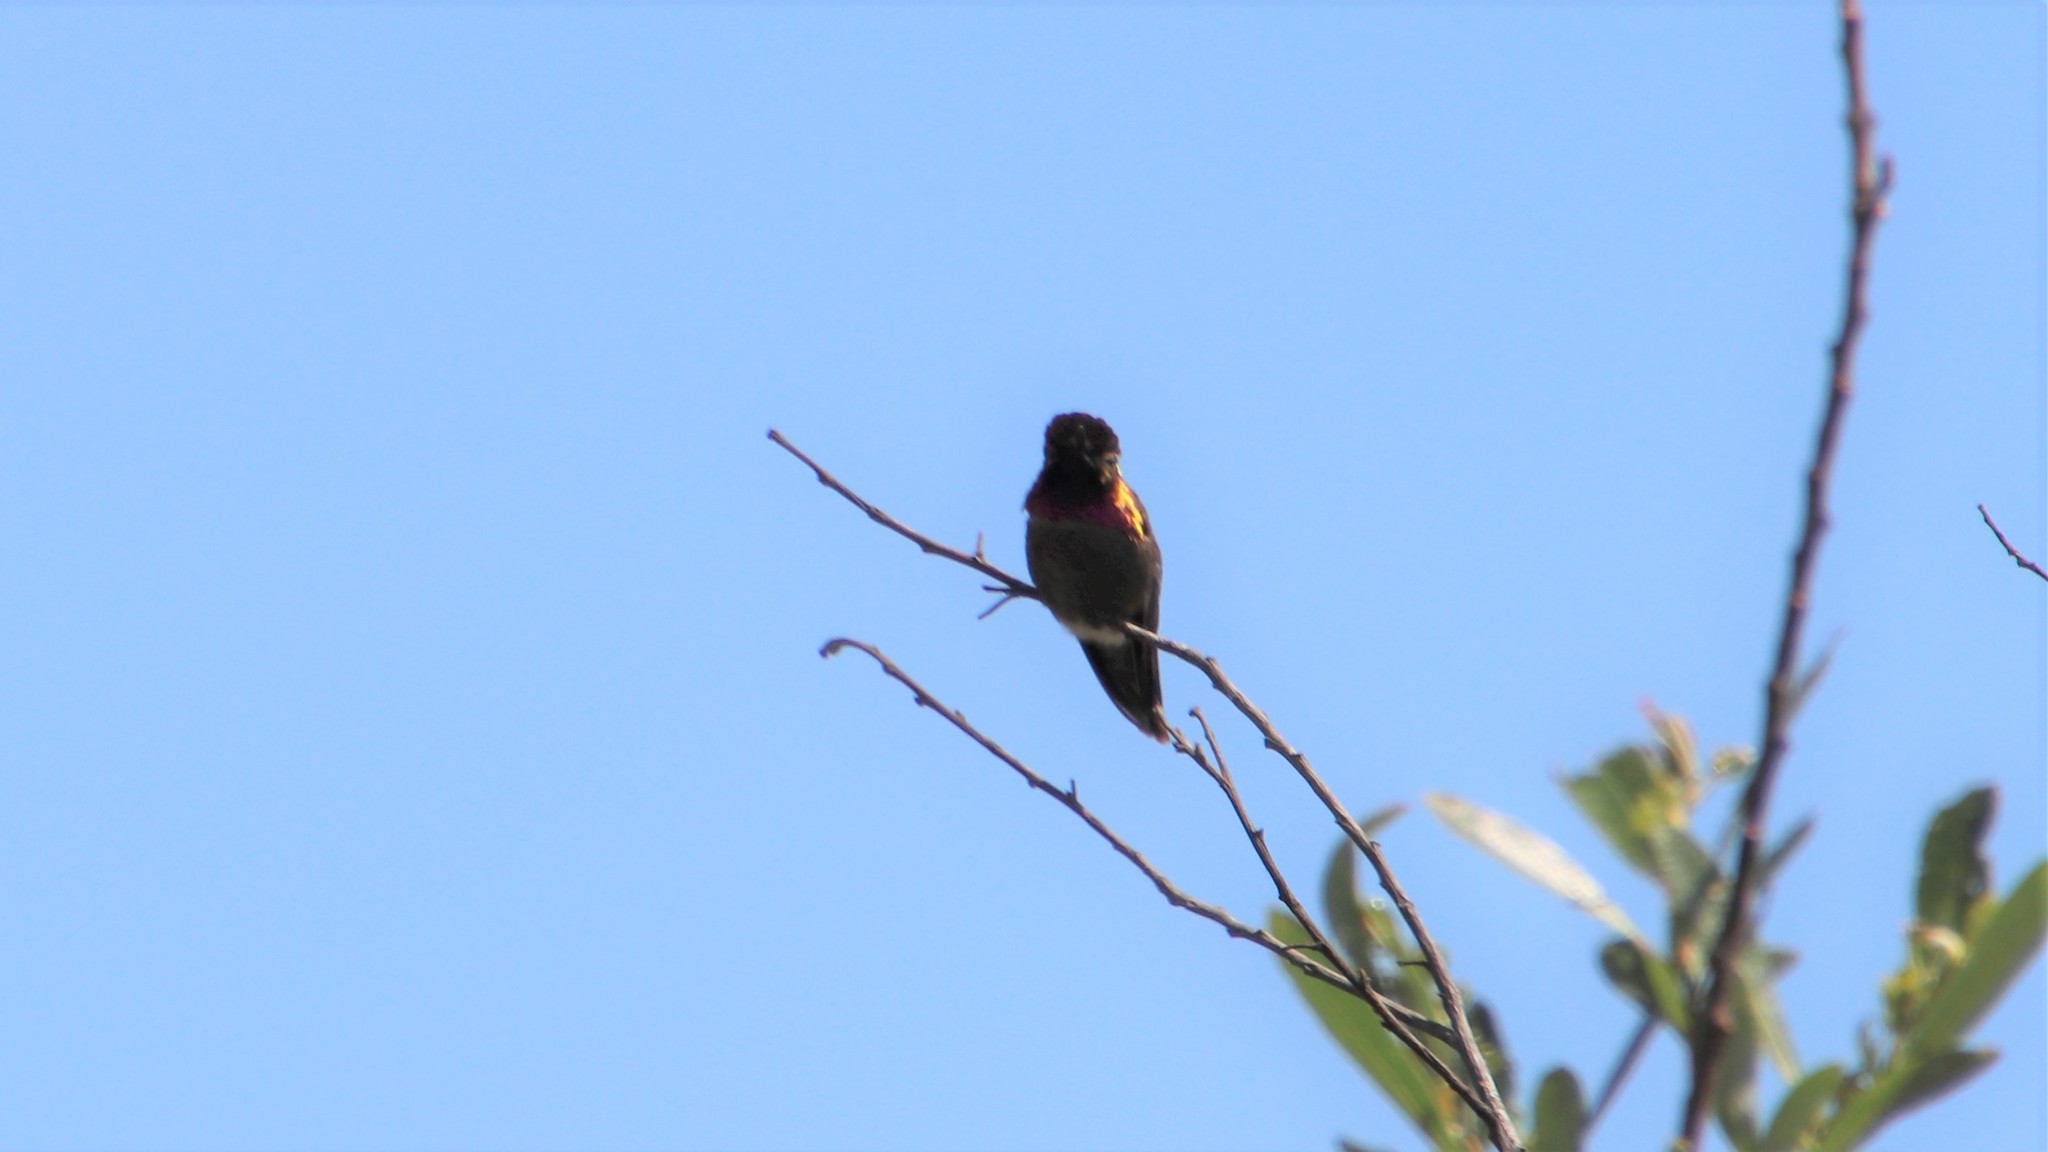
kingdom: Animalia
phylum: Chordata
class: Aves
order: Apodiformes
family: Trochilidae
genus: Calypte
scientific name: Calypte anna
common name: Anna's hummingbird
